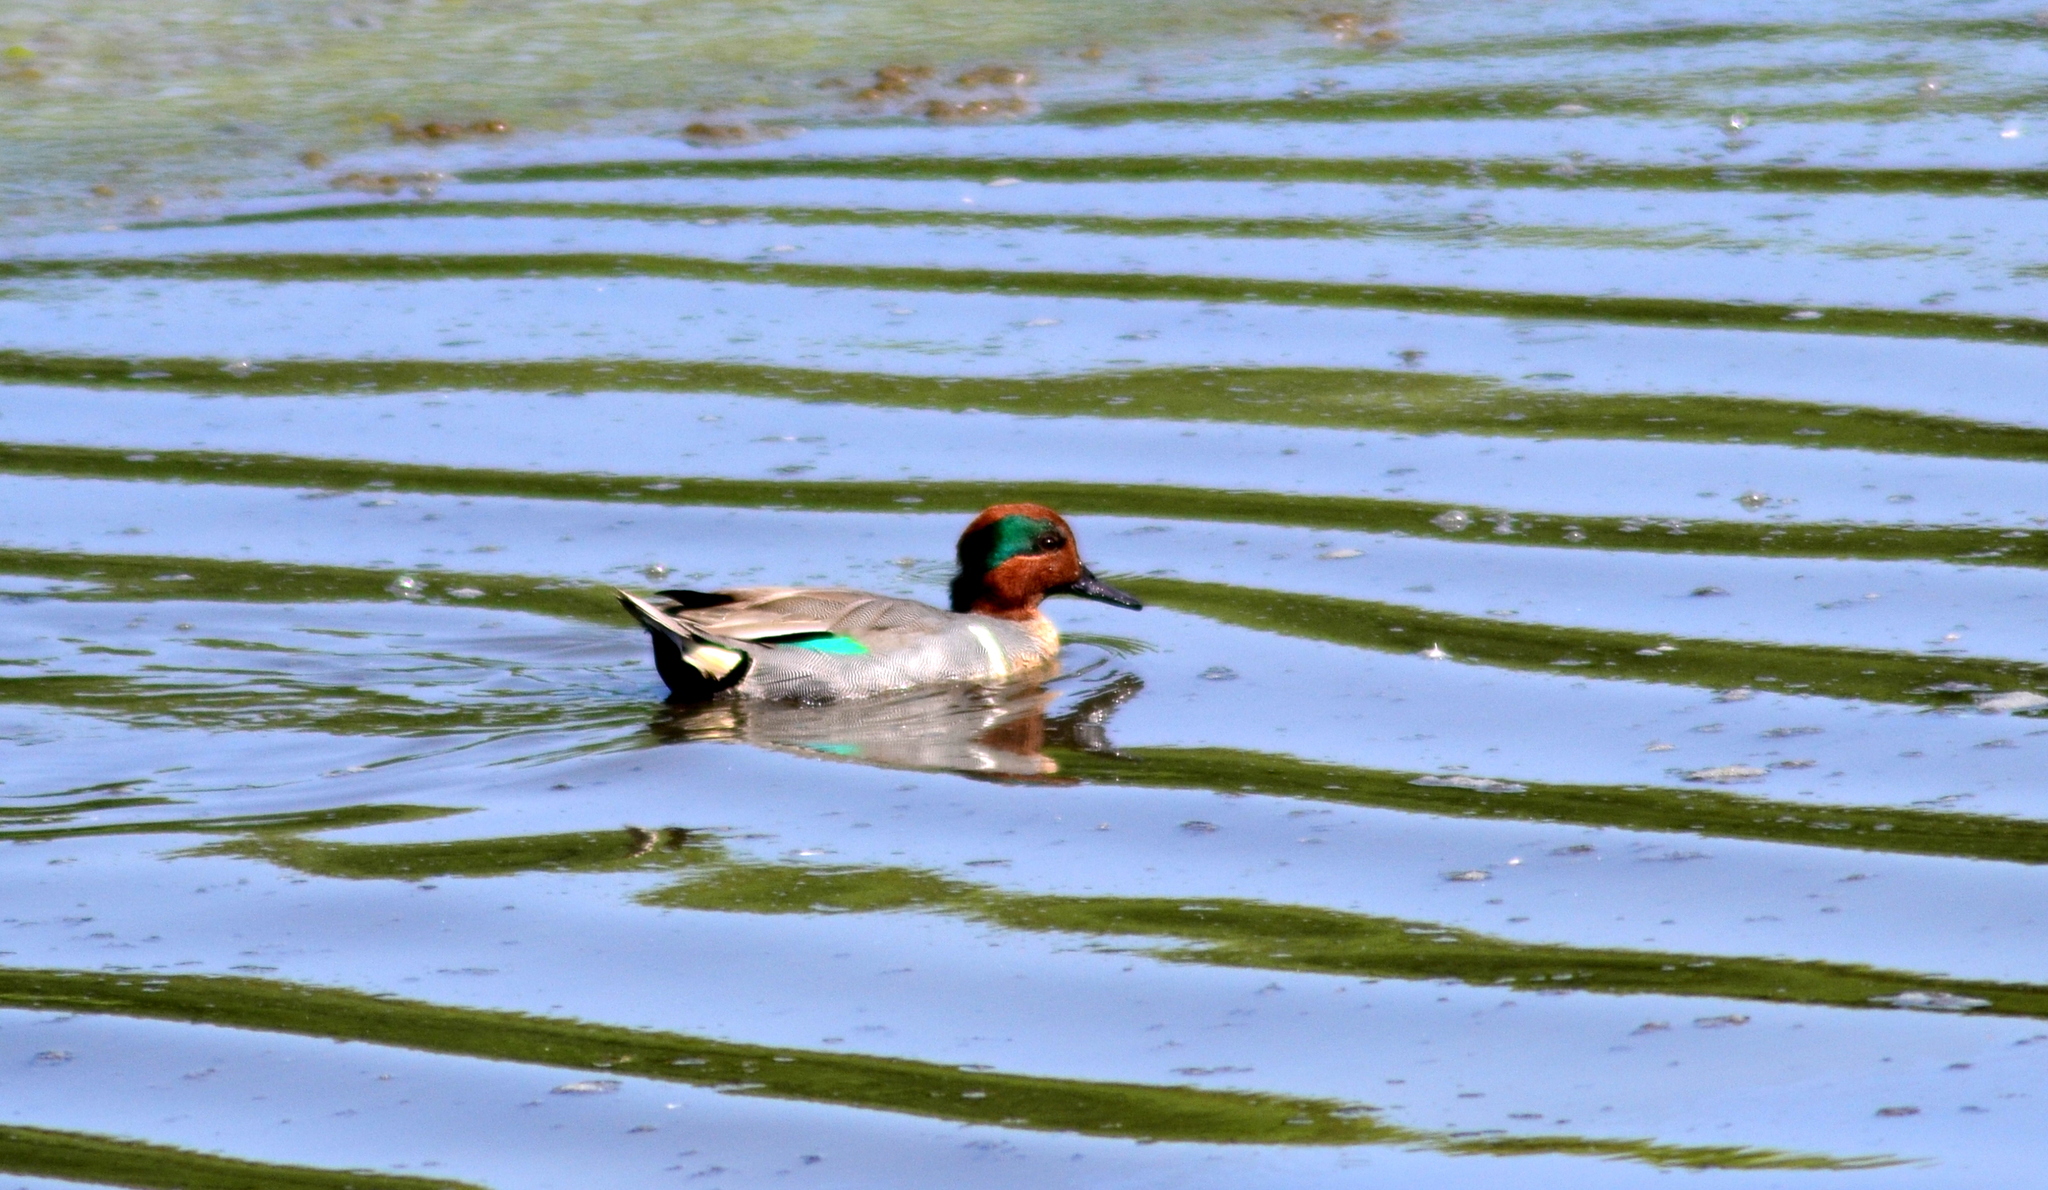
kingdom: Animalia
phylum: Chordata
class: Aves
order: Anseriformes
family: Anatidae
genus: Anas
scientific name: Anas crecca
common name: Eurasian teal
